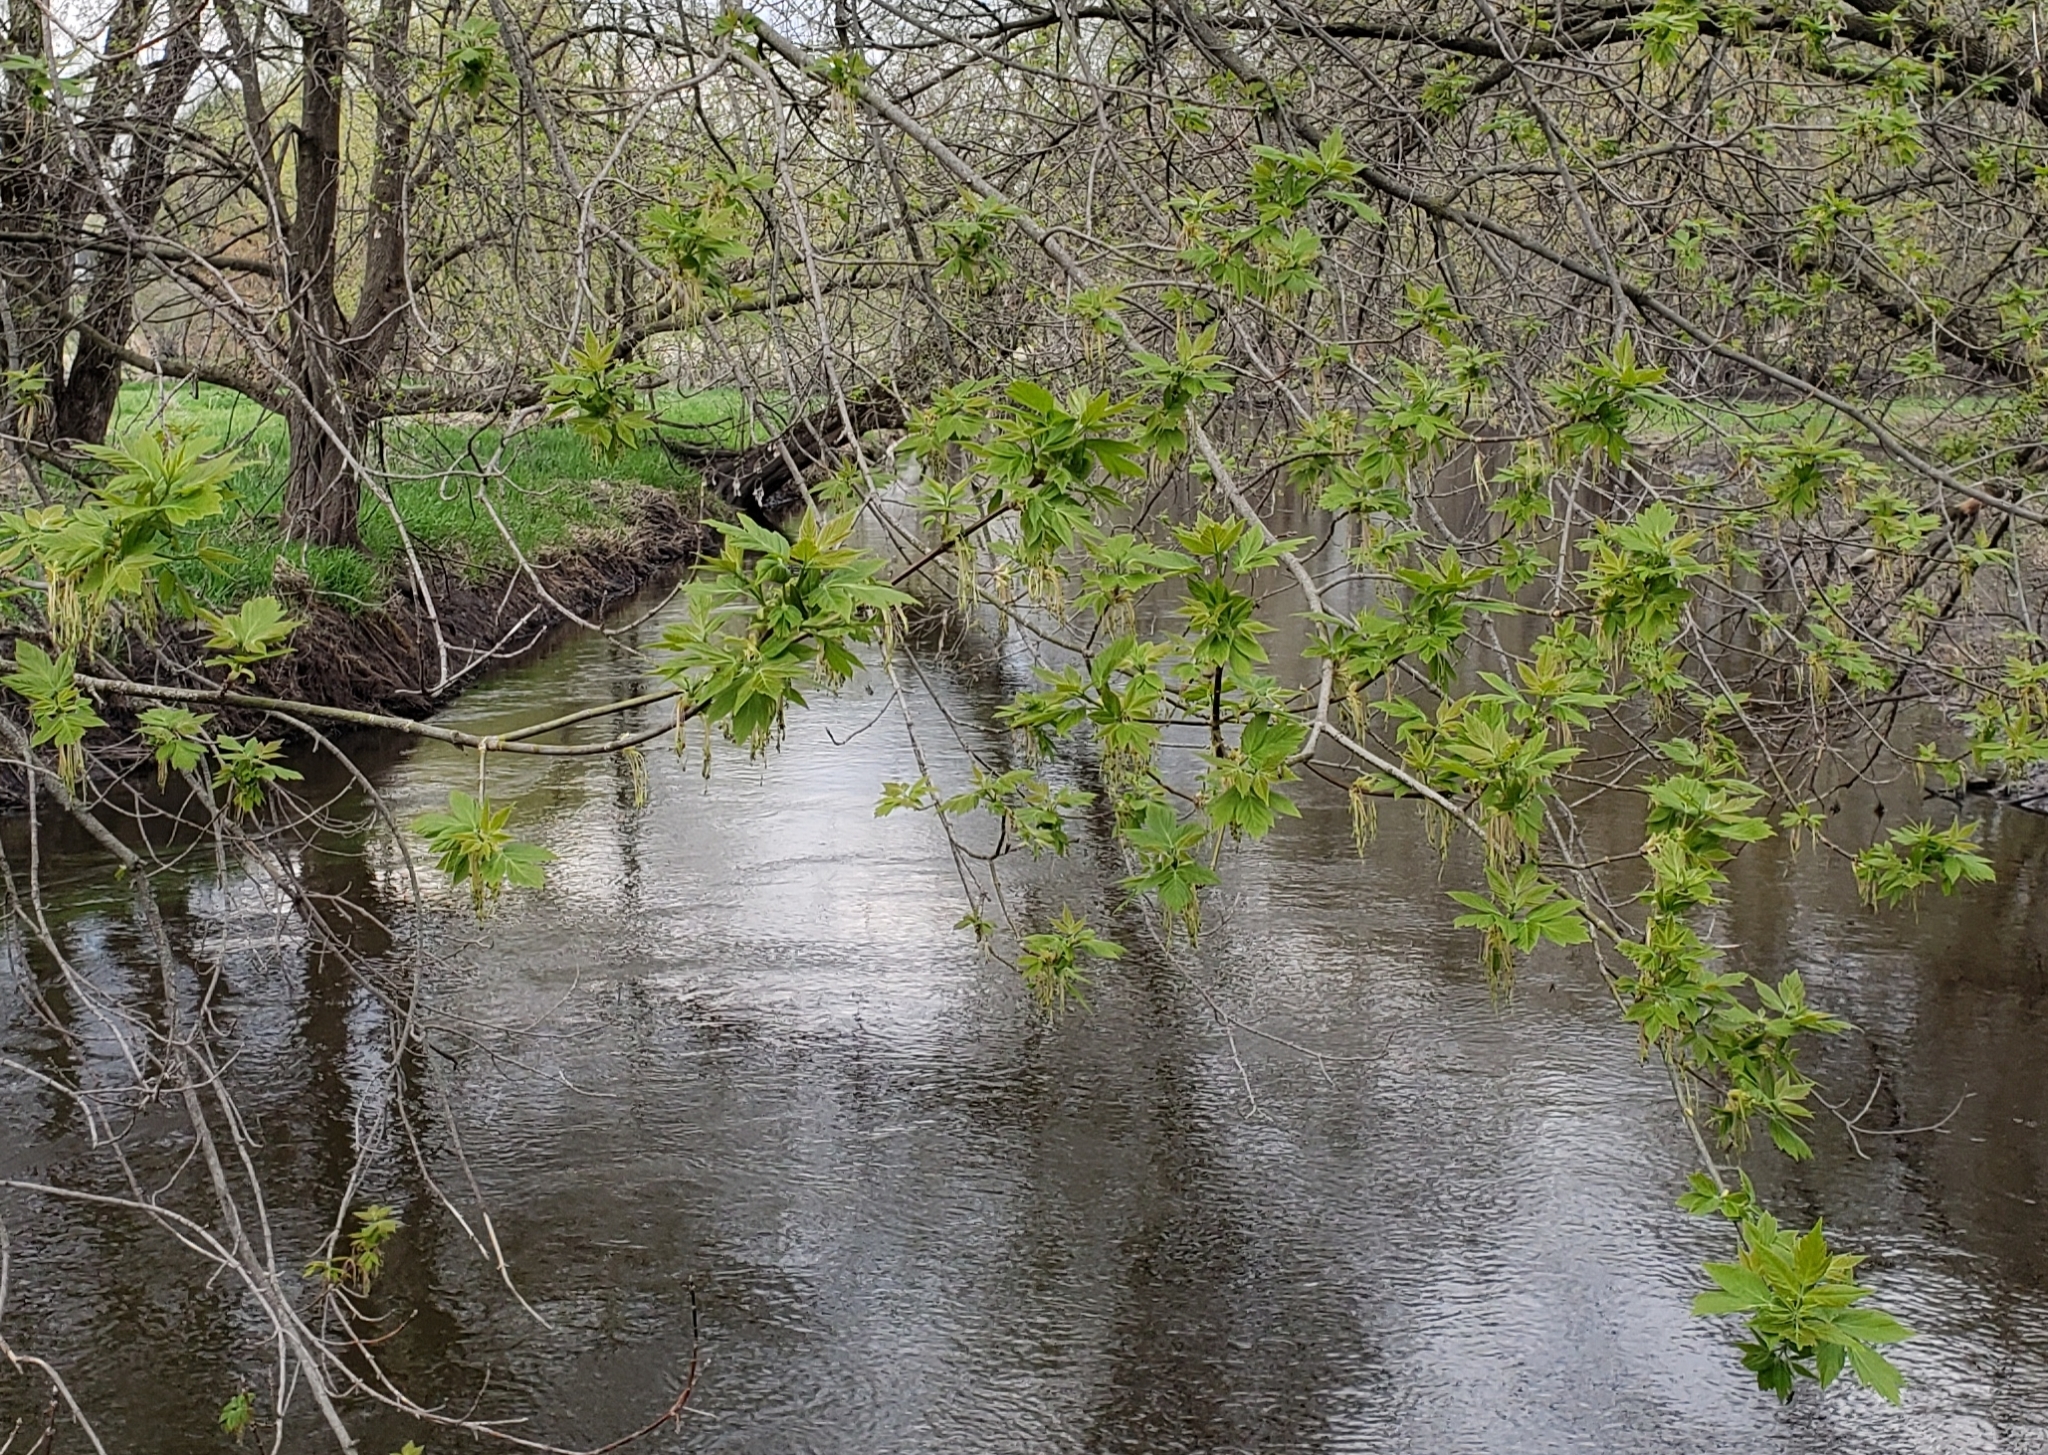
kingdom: Plantae
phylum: Tracheophyta
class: Magnoliopsida
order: Sapindales
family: Sapindaceae
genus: Acer
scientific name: Acer negundo
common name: Ashleaf maple
